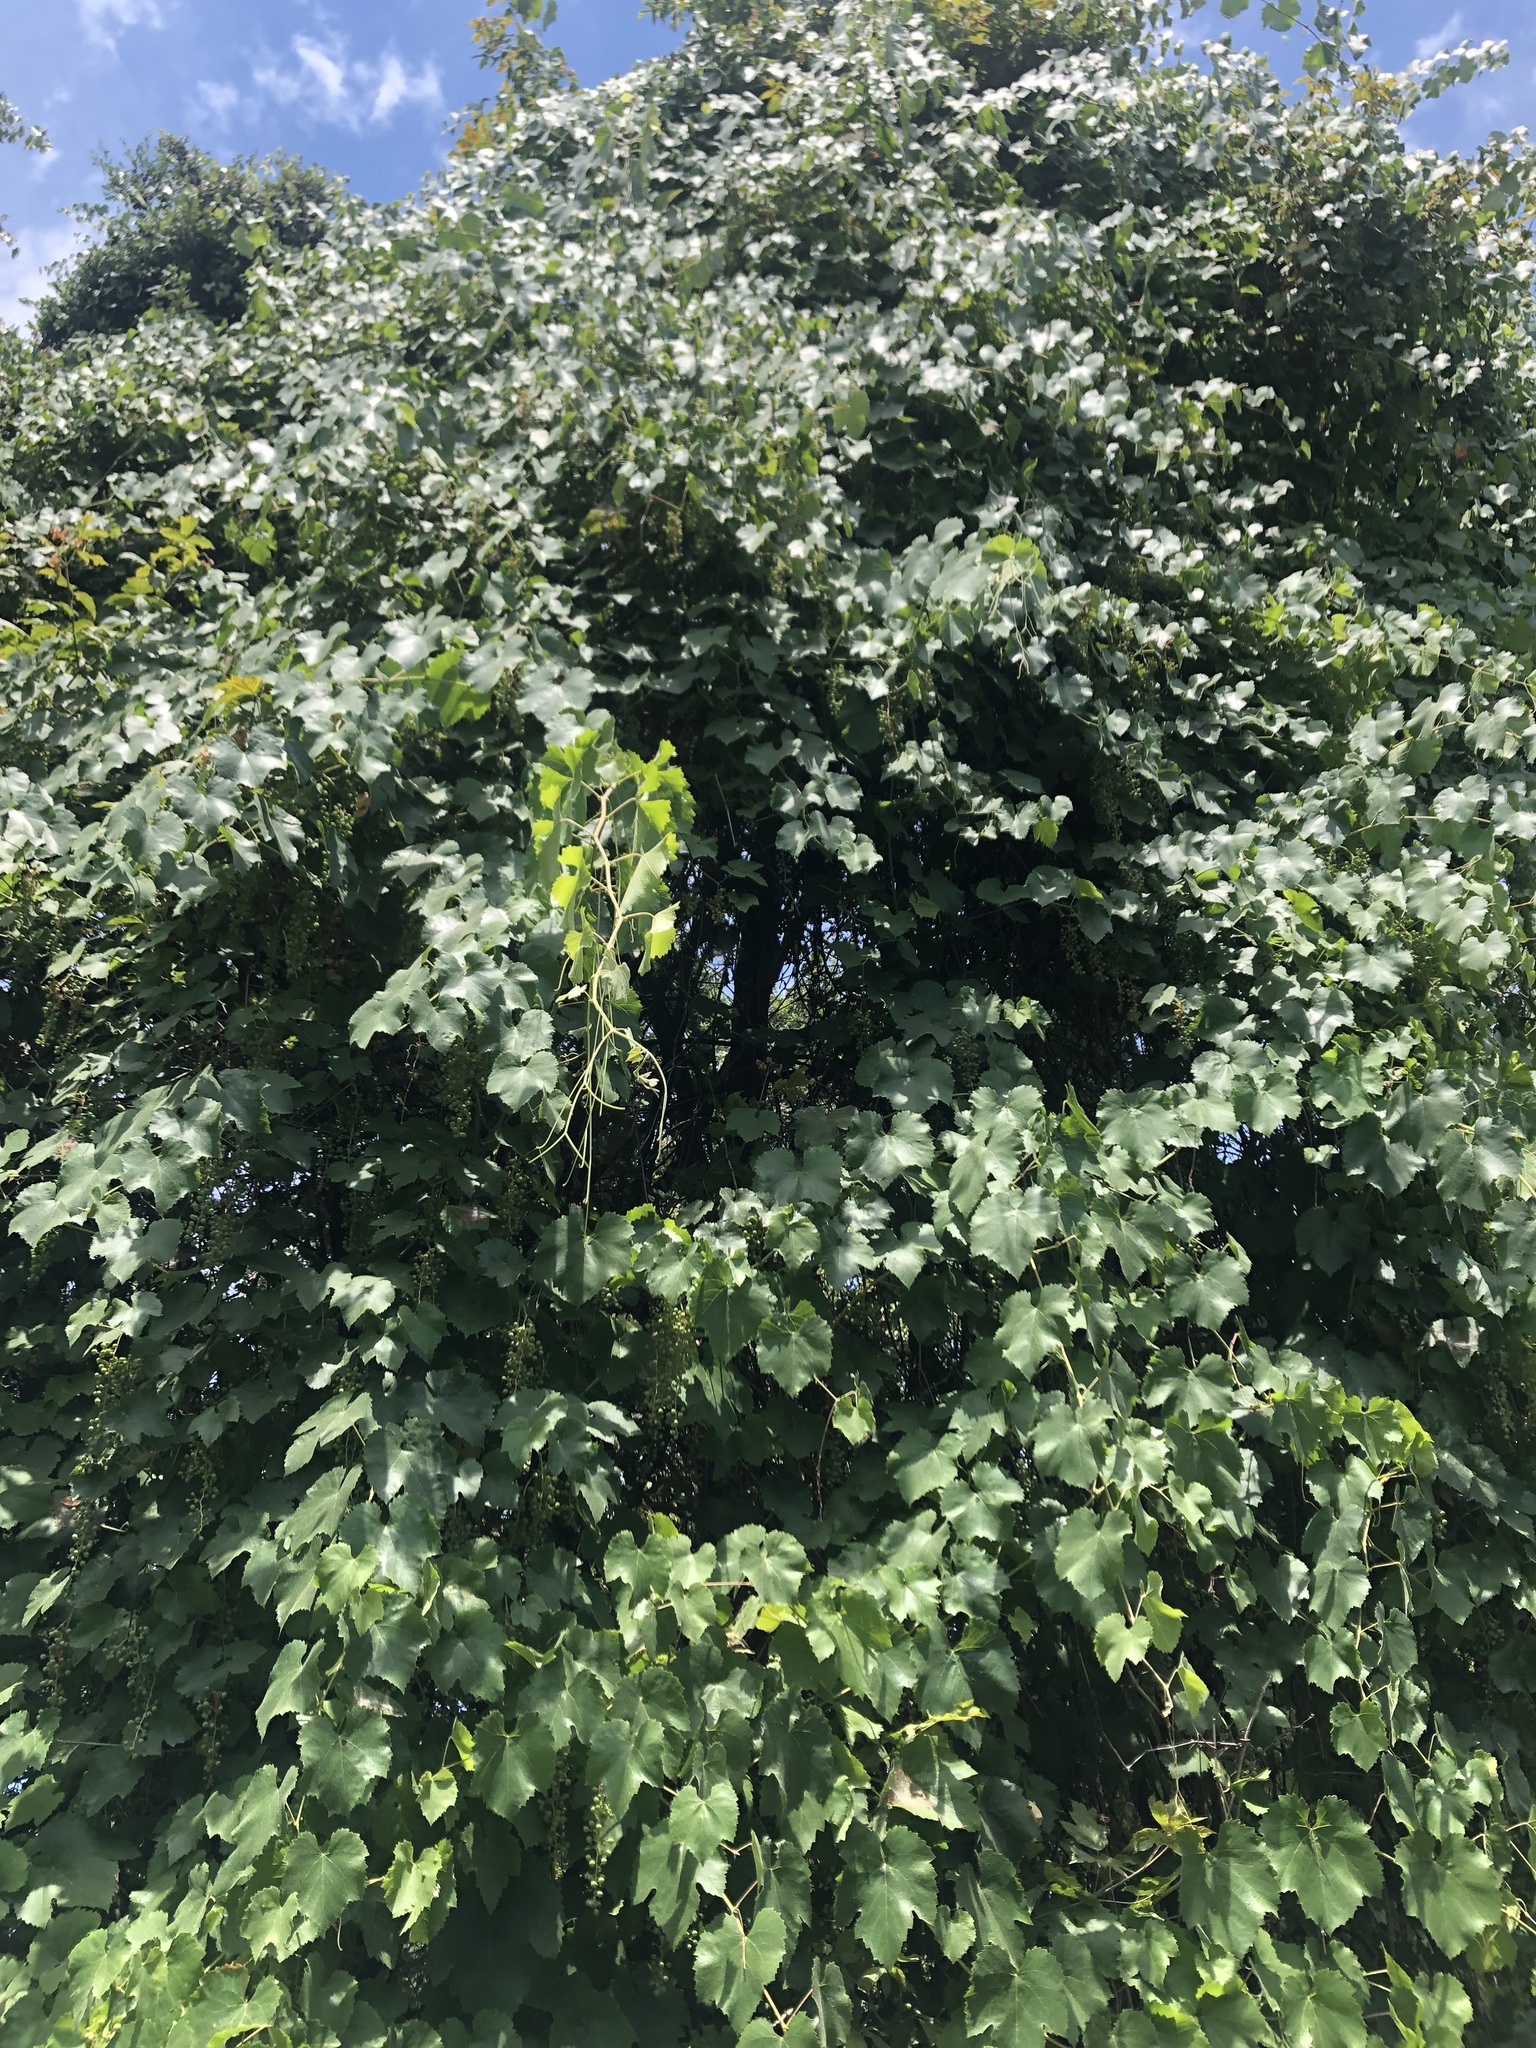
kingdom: Plantae
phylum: Tracheophyta
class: Magnoliopsida
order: Vitales
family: Vitaceae
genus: Vitis
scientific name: Vitis californica
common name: California wild grape
